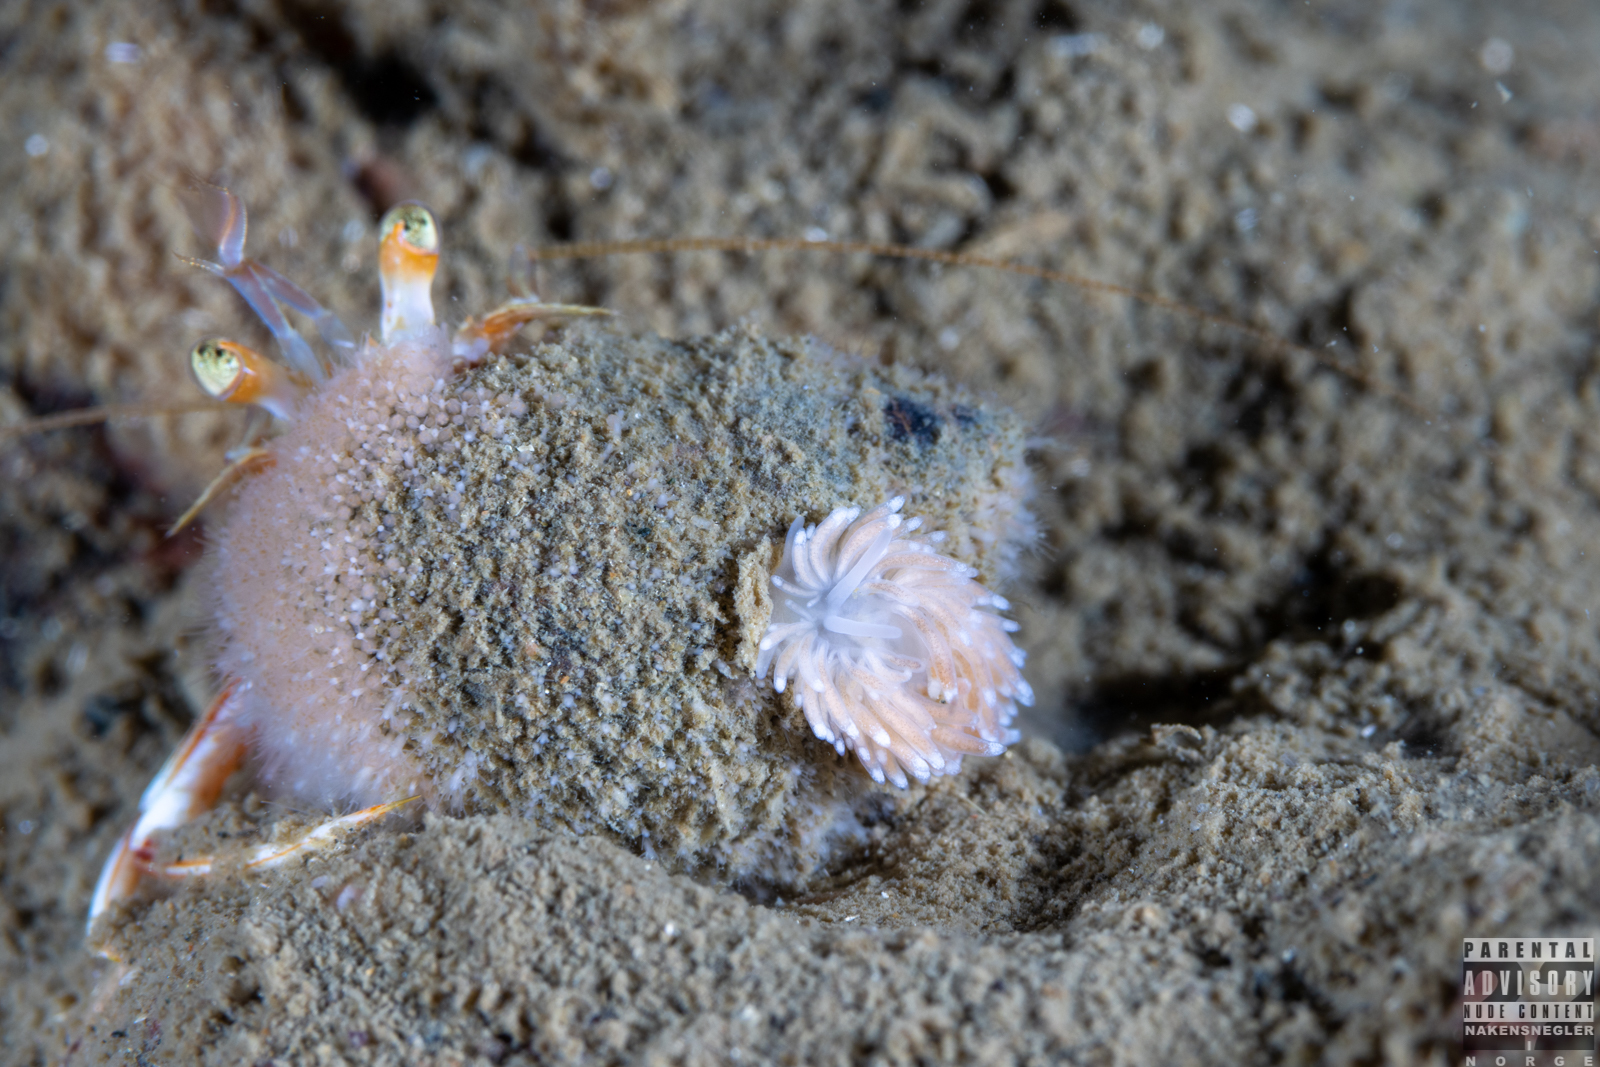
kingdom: Animalia
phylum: Mollusca
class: Gastropoda
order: Nudibranchia
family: Cuthonidae
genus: Cuthona
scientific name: Cuthona nana
